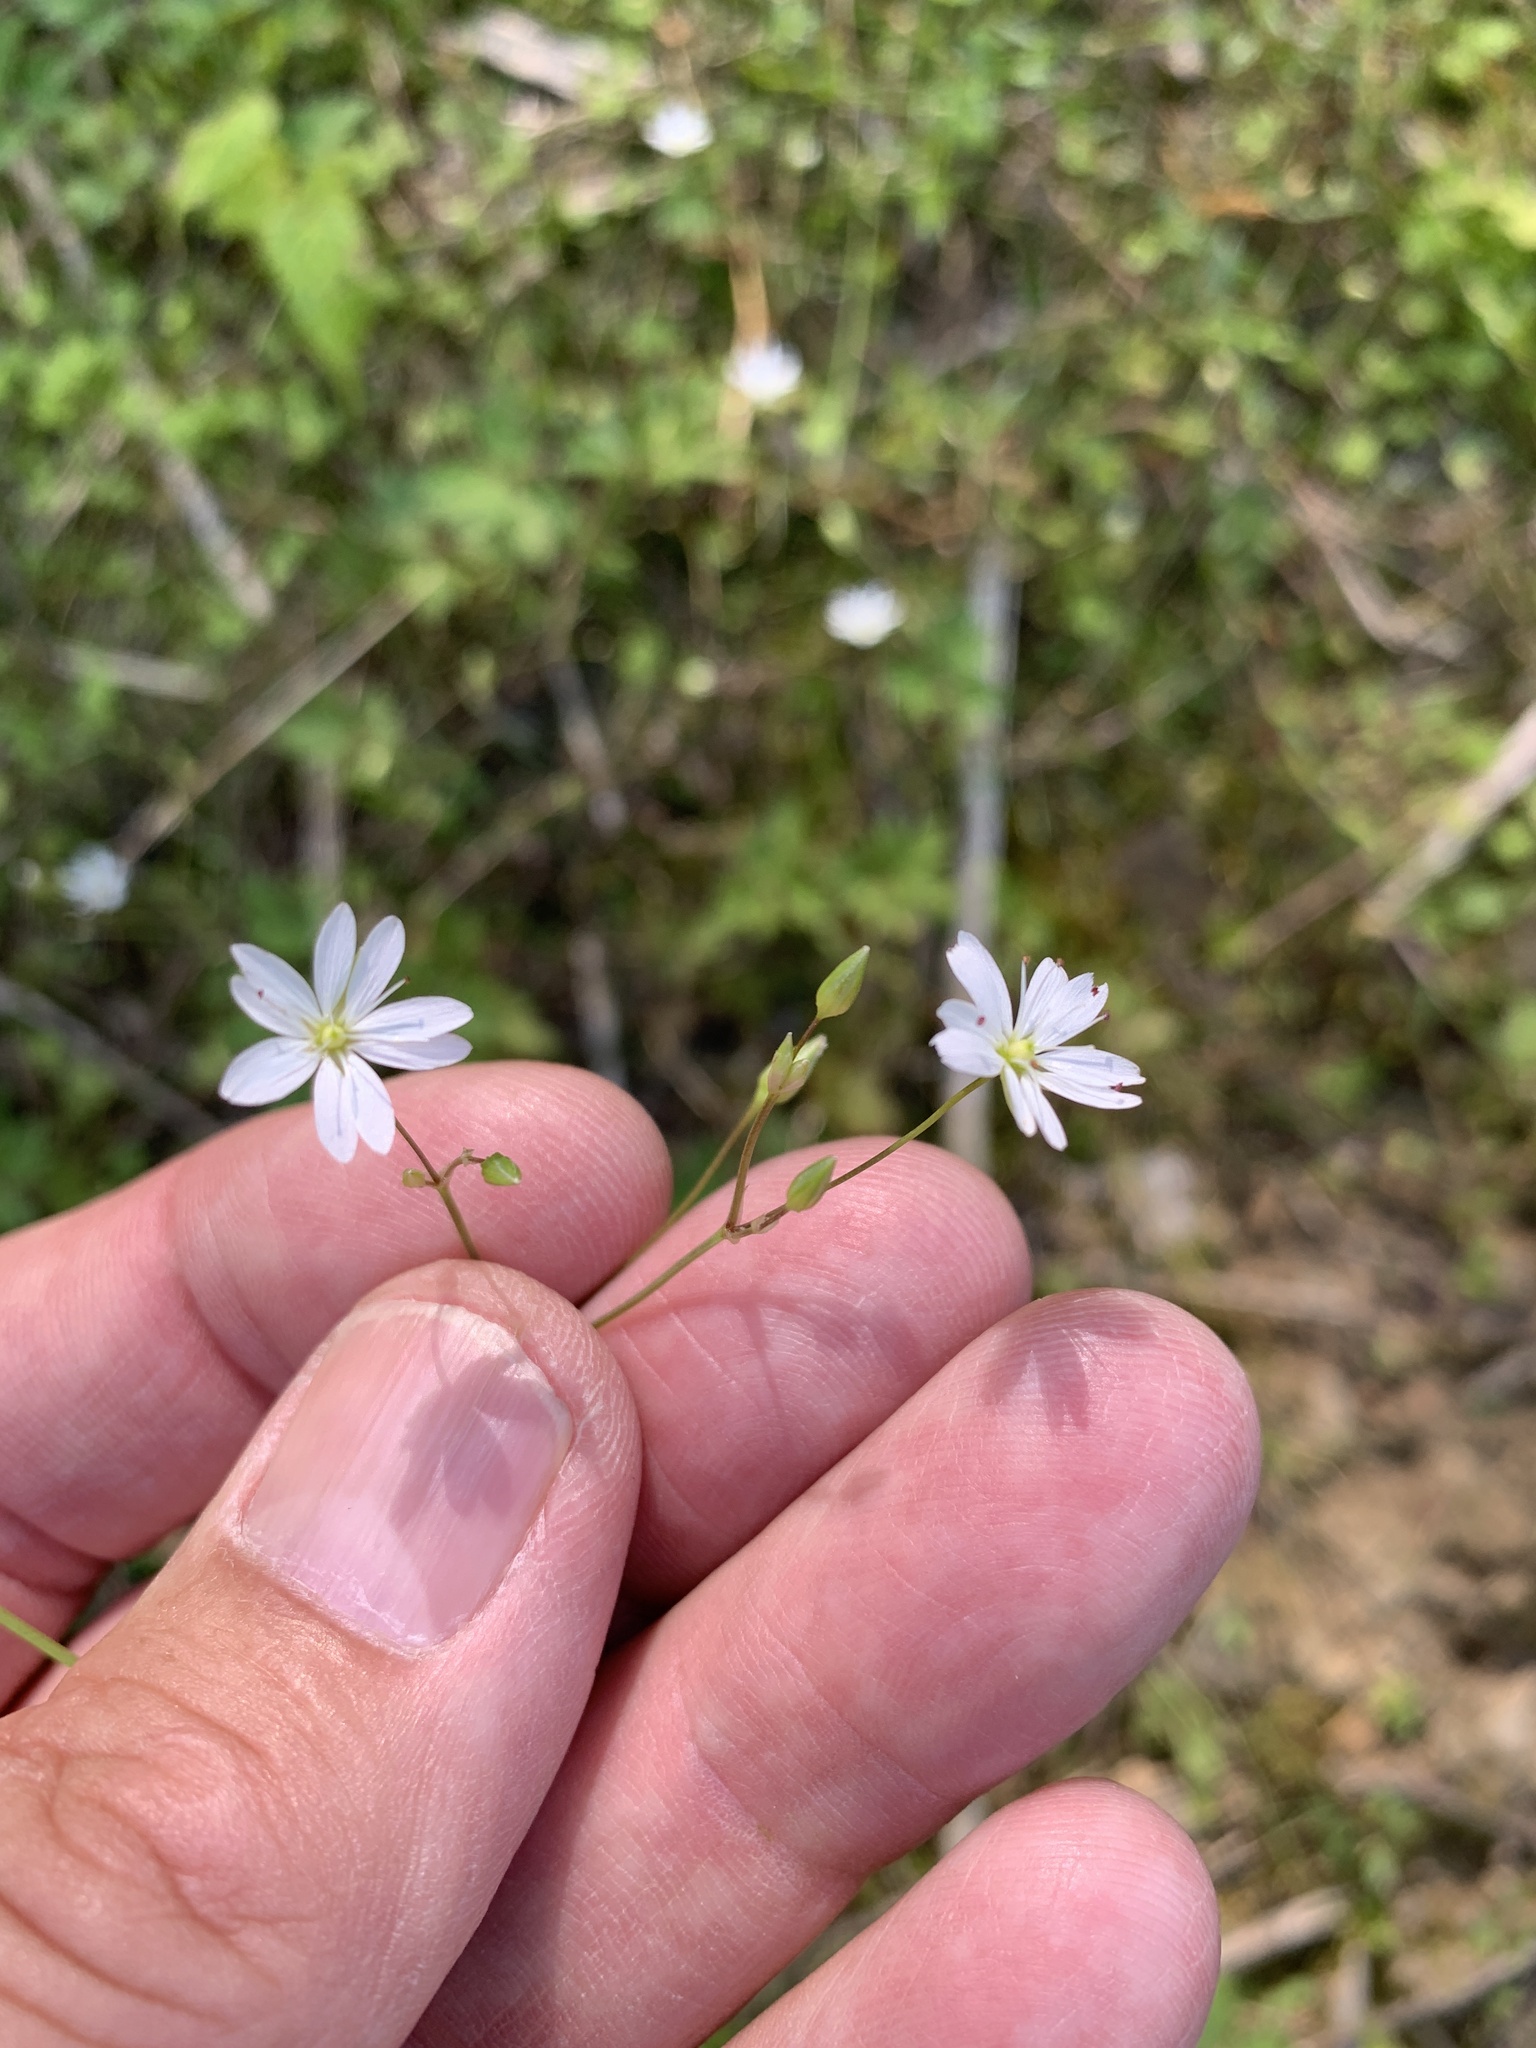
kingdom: Plantae
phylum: Tracheophyta
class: Magnoliopsida
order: Caryophyllales
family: Caryophyllaceae
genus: Stellaria
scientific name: Stellaria graminea
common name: Grass-like starwort
